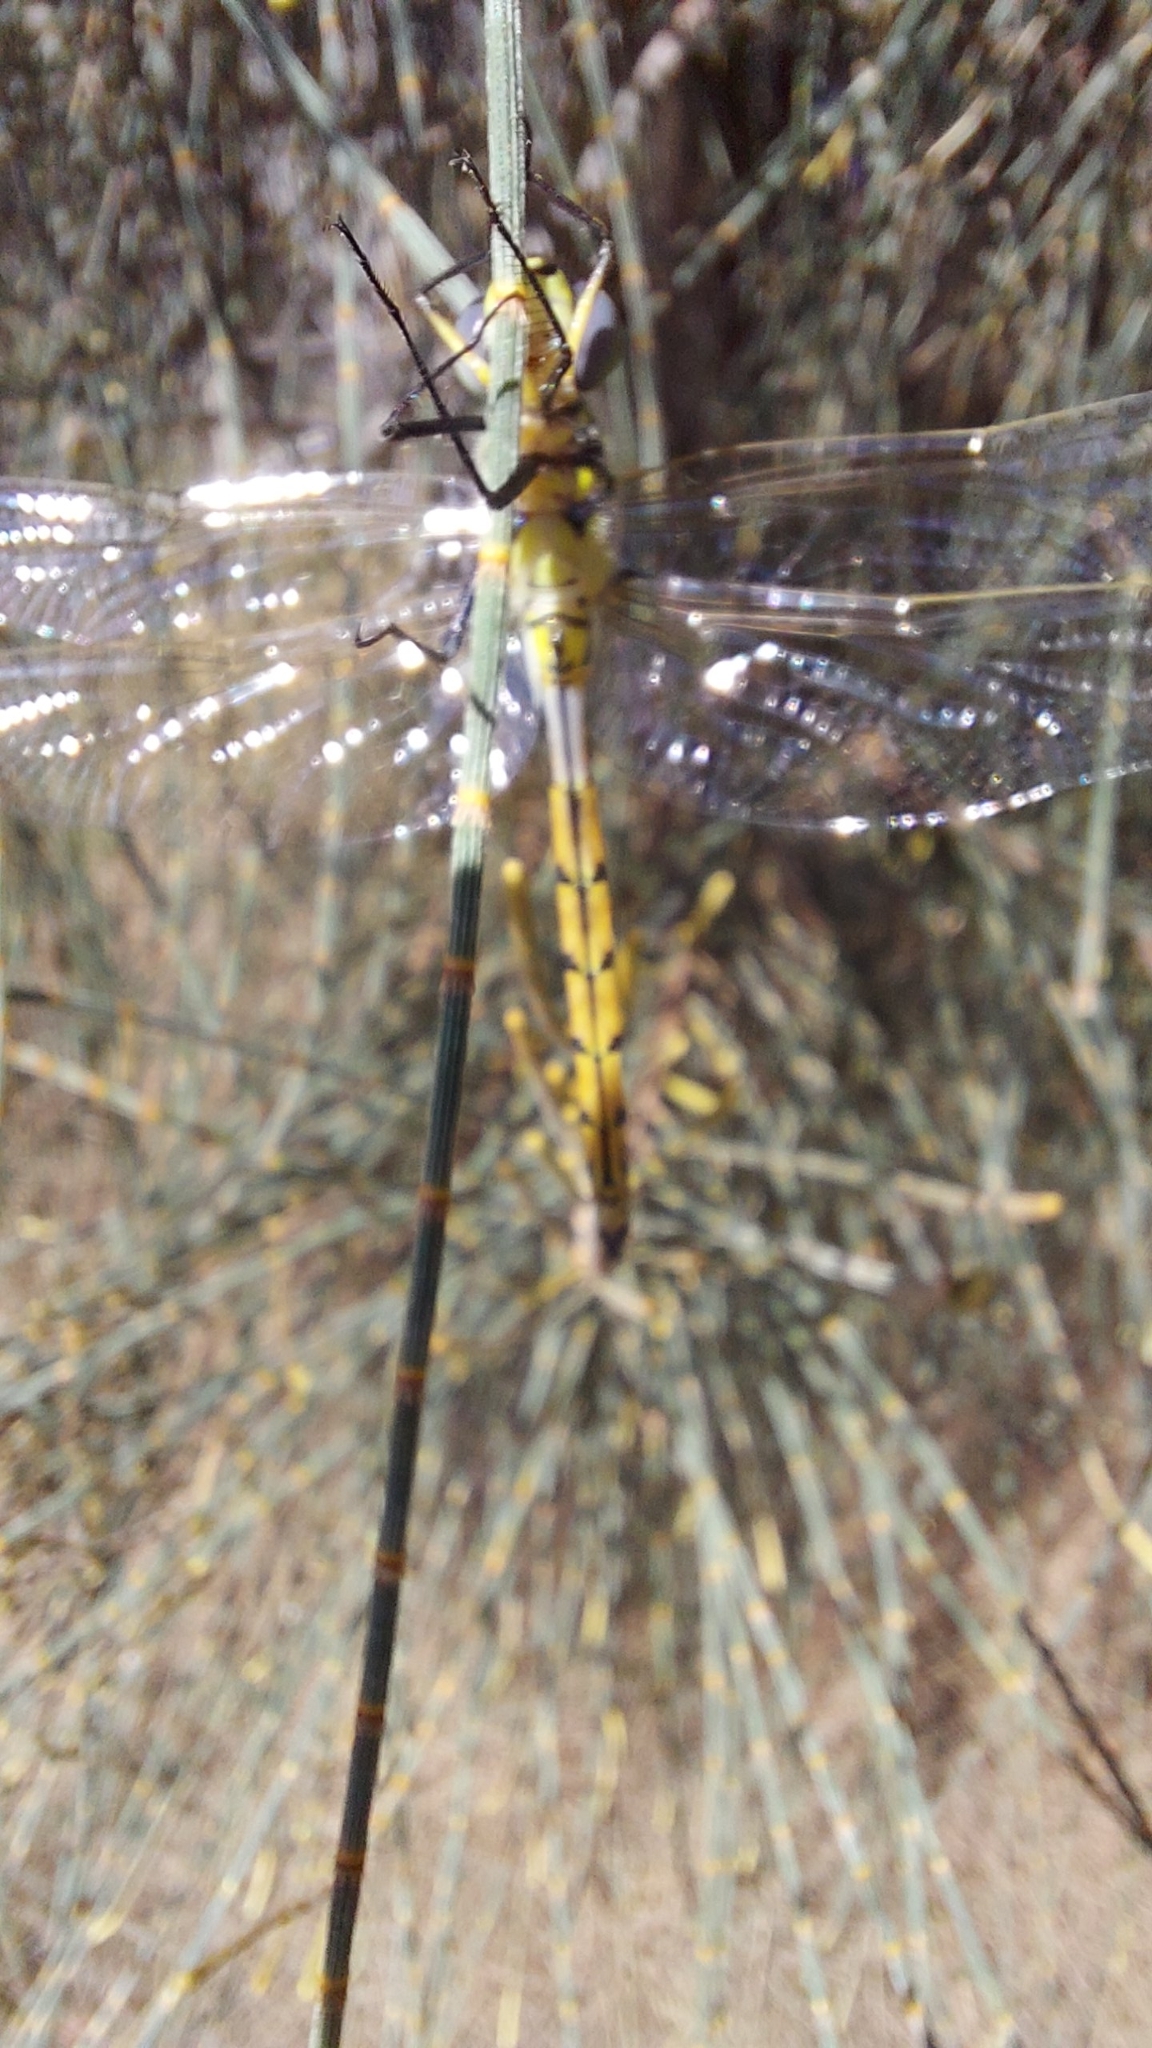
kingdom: Animalia
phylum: Arthropoda
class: Insecta
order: Odonata
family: Corduliidae
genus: Hemicordulia
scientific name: Hemicordulia tau
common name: Tau emerald
